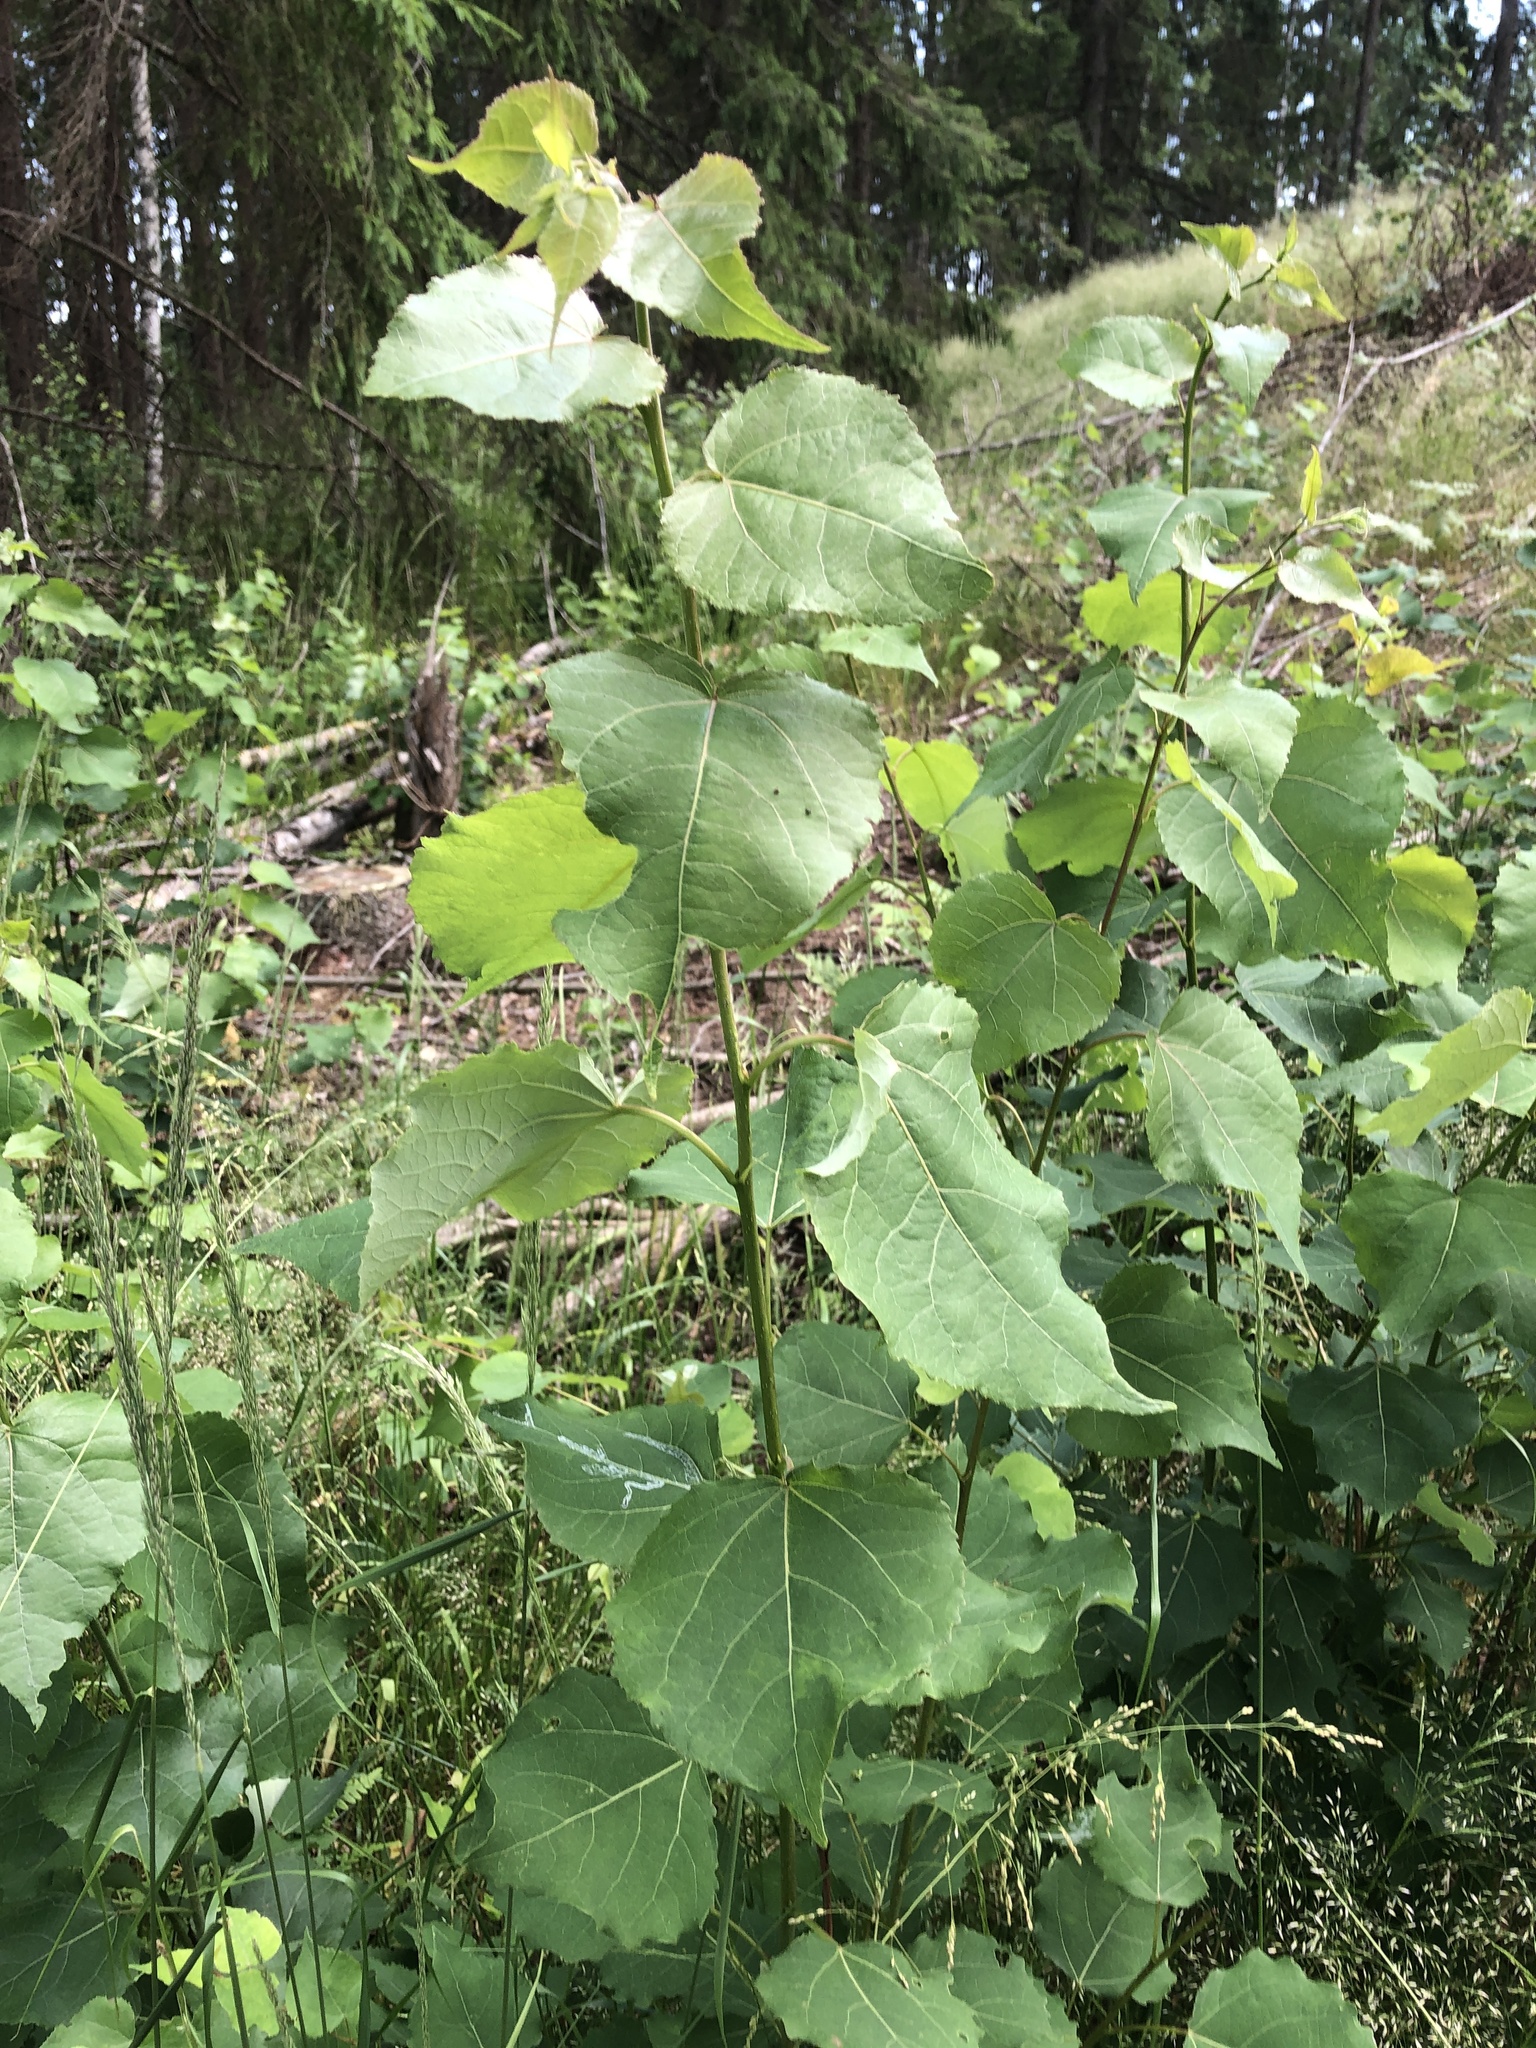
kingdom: Plantae
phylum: Tracheophyta
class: Magnoliopsida
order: Malpighiales
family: Salicaceae
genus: Populus
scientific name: Populus tremula
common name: European aspen
